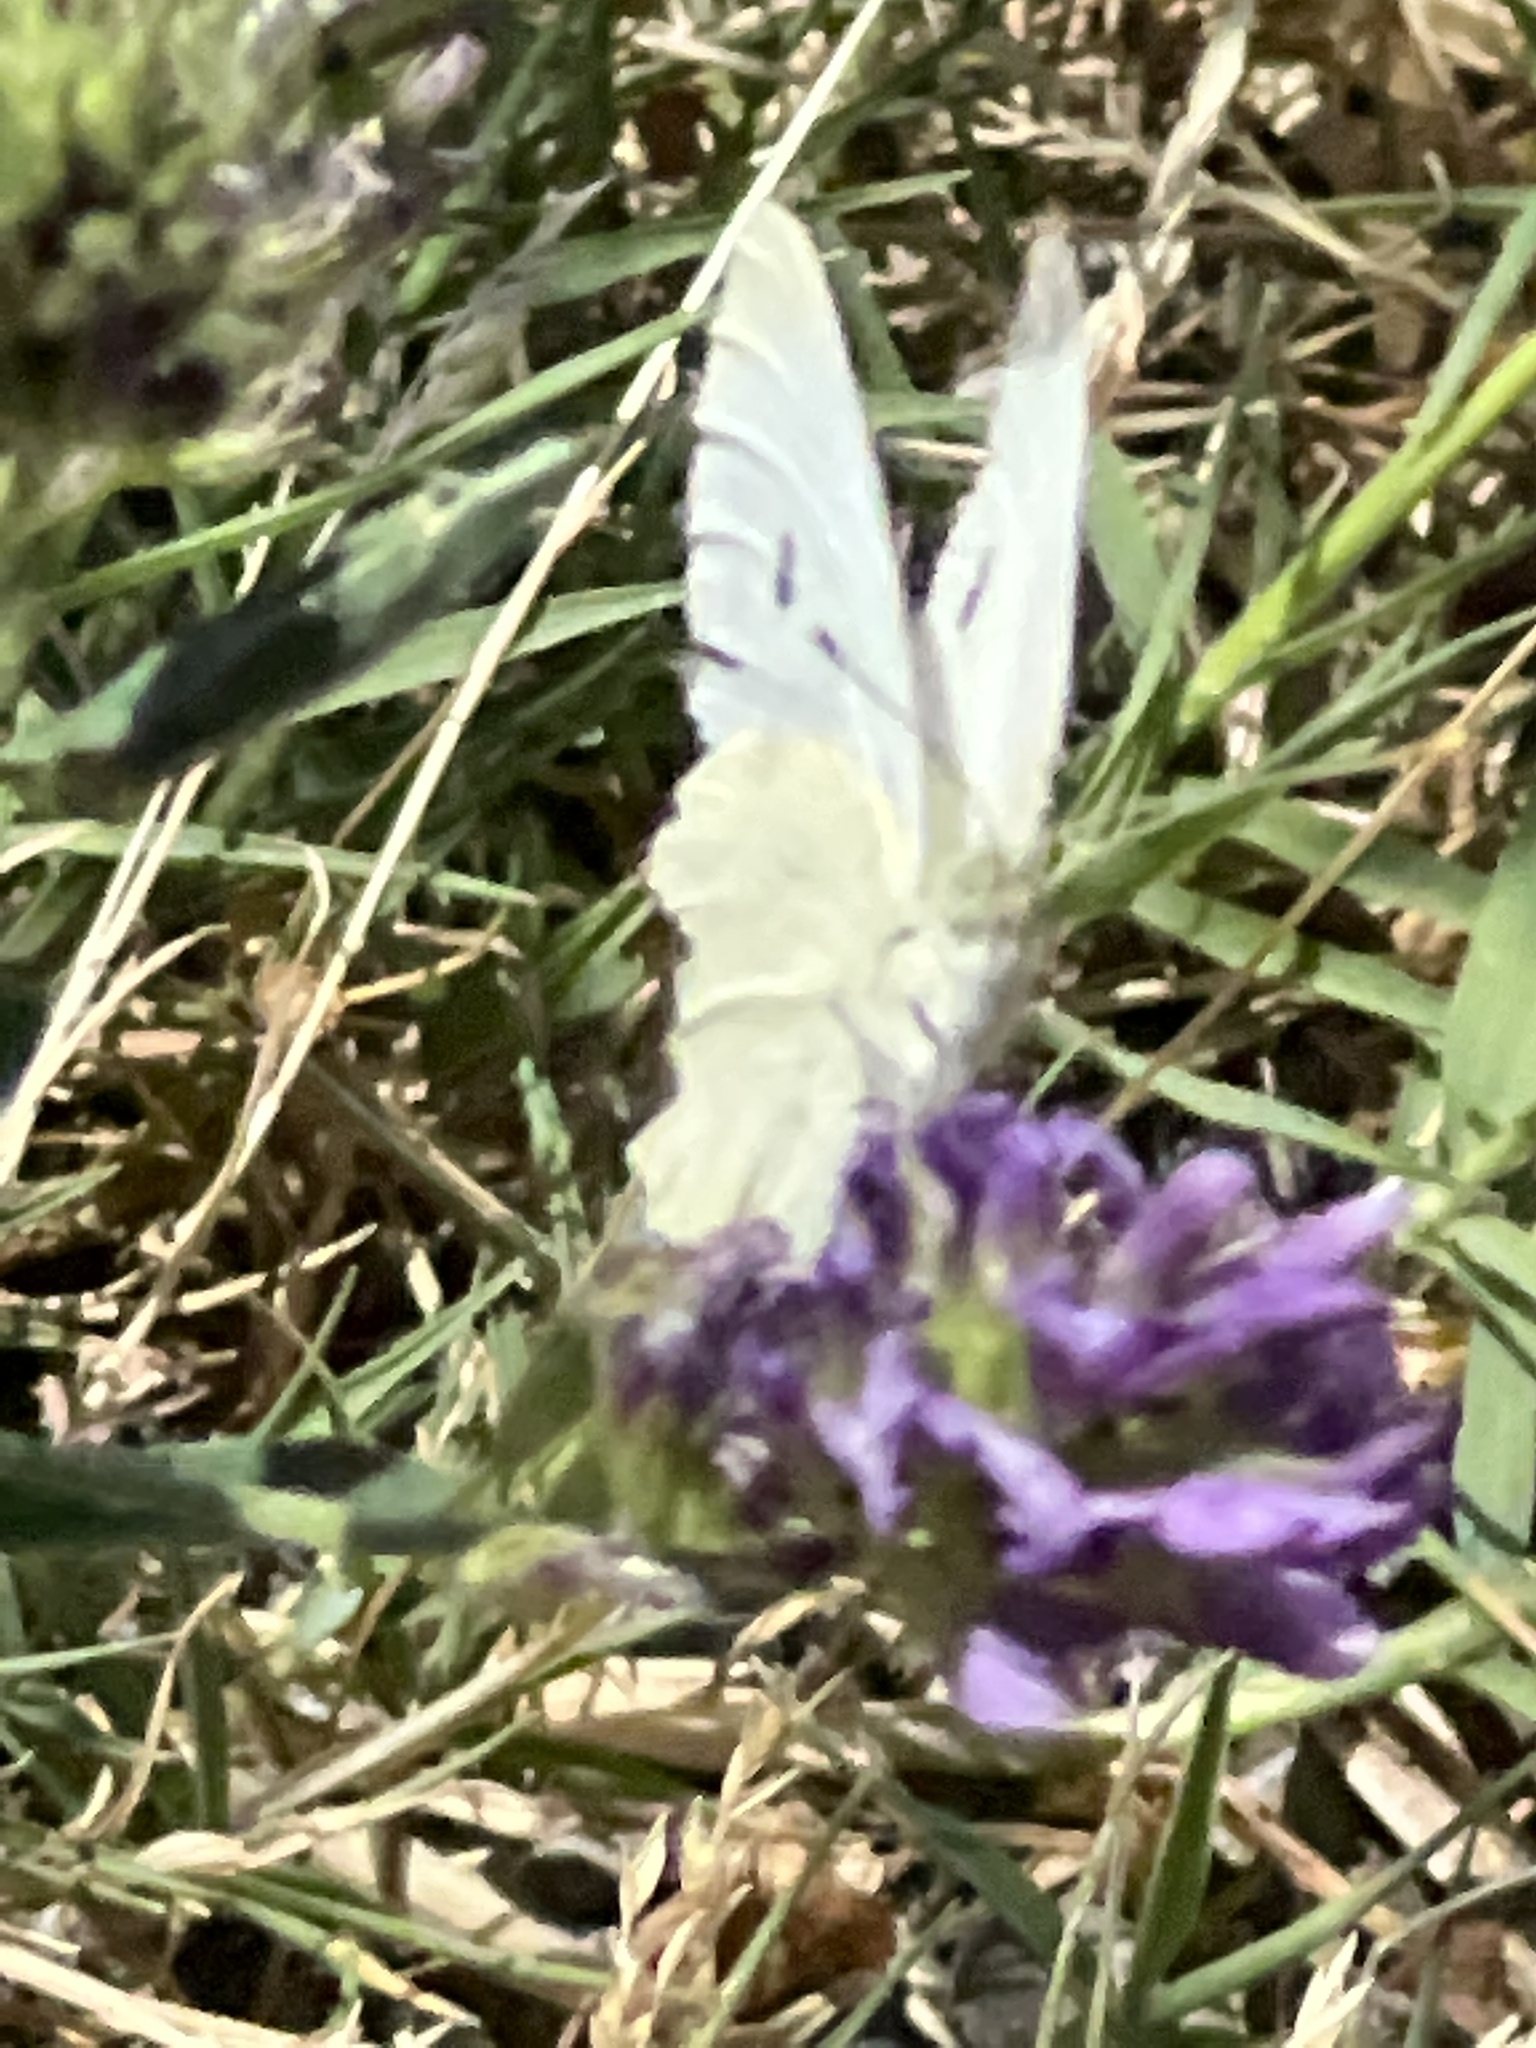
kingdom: Animalia
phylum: Arthropoda
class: Insecta
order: Lepidoptera
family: Pieridae
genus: Pieris
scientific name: Pieris rapae
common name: Small white
